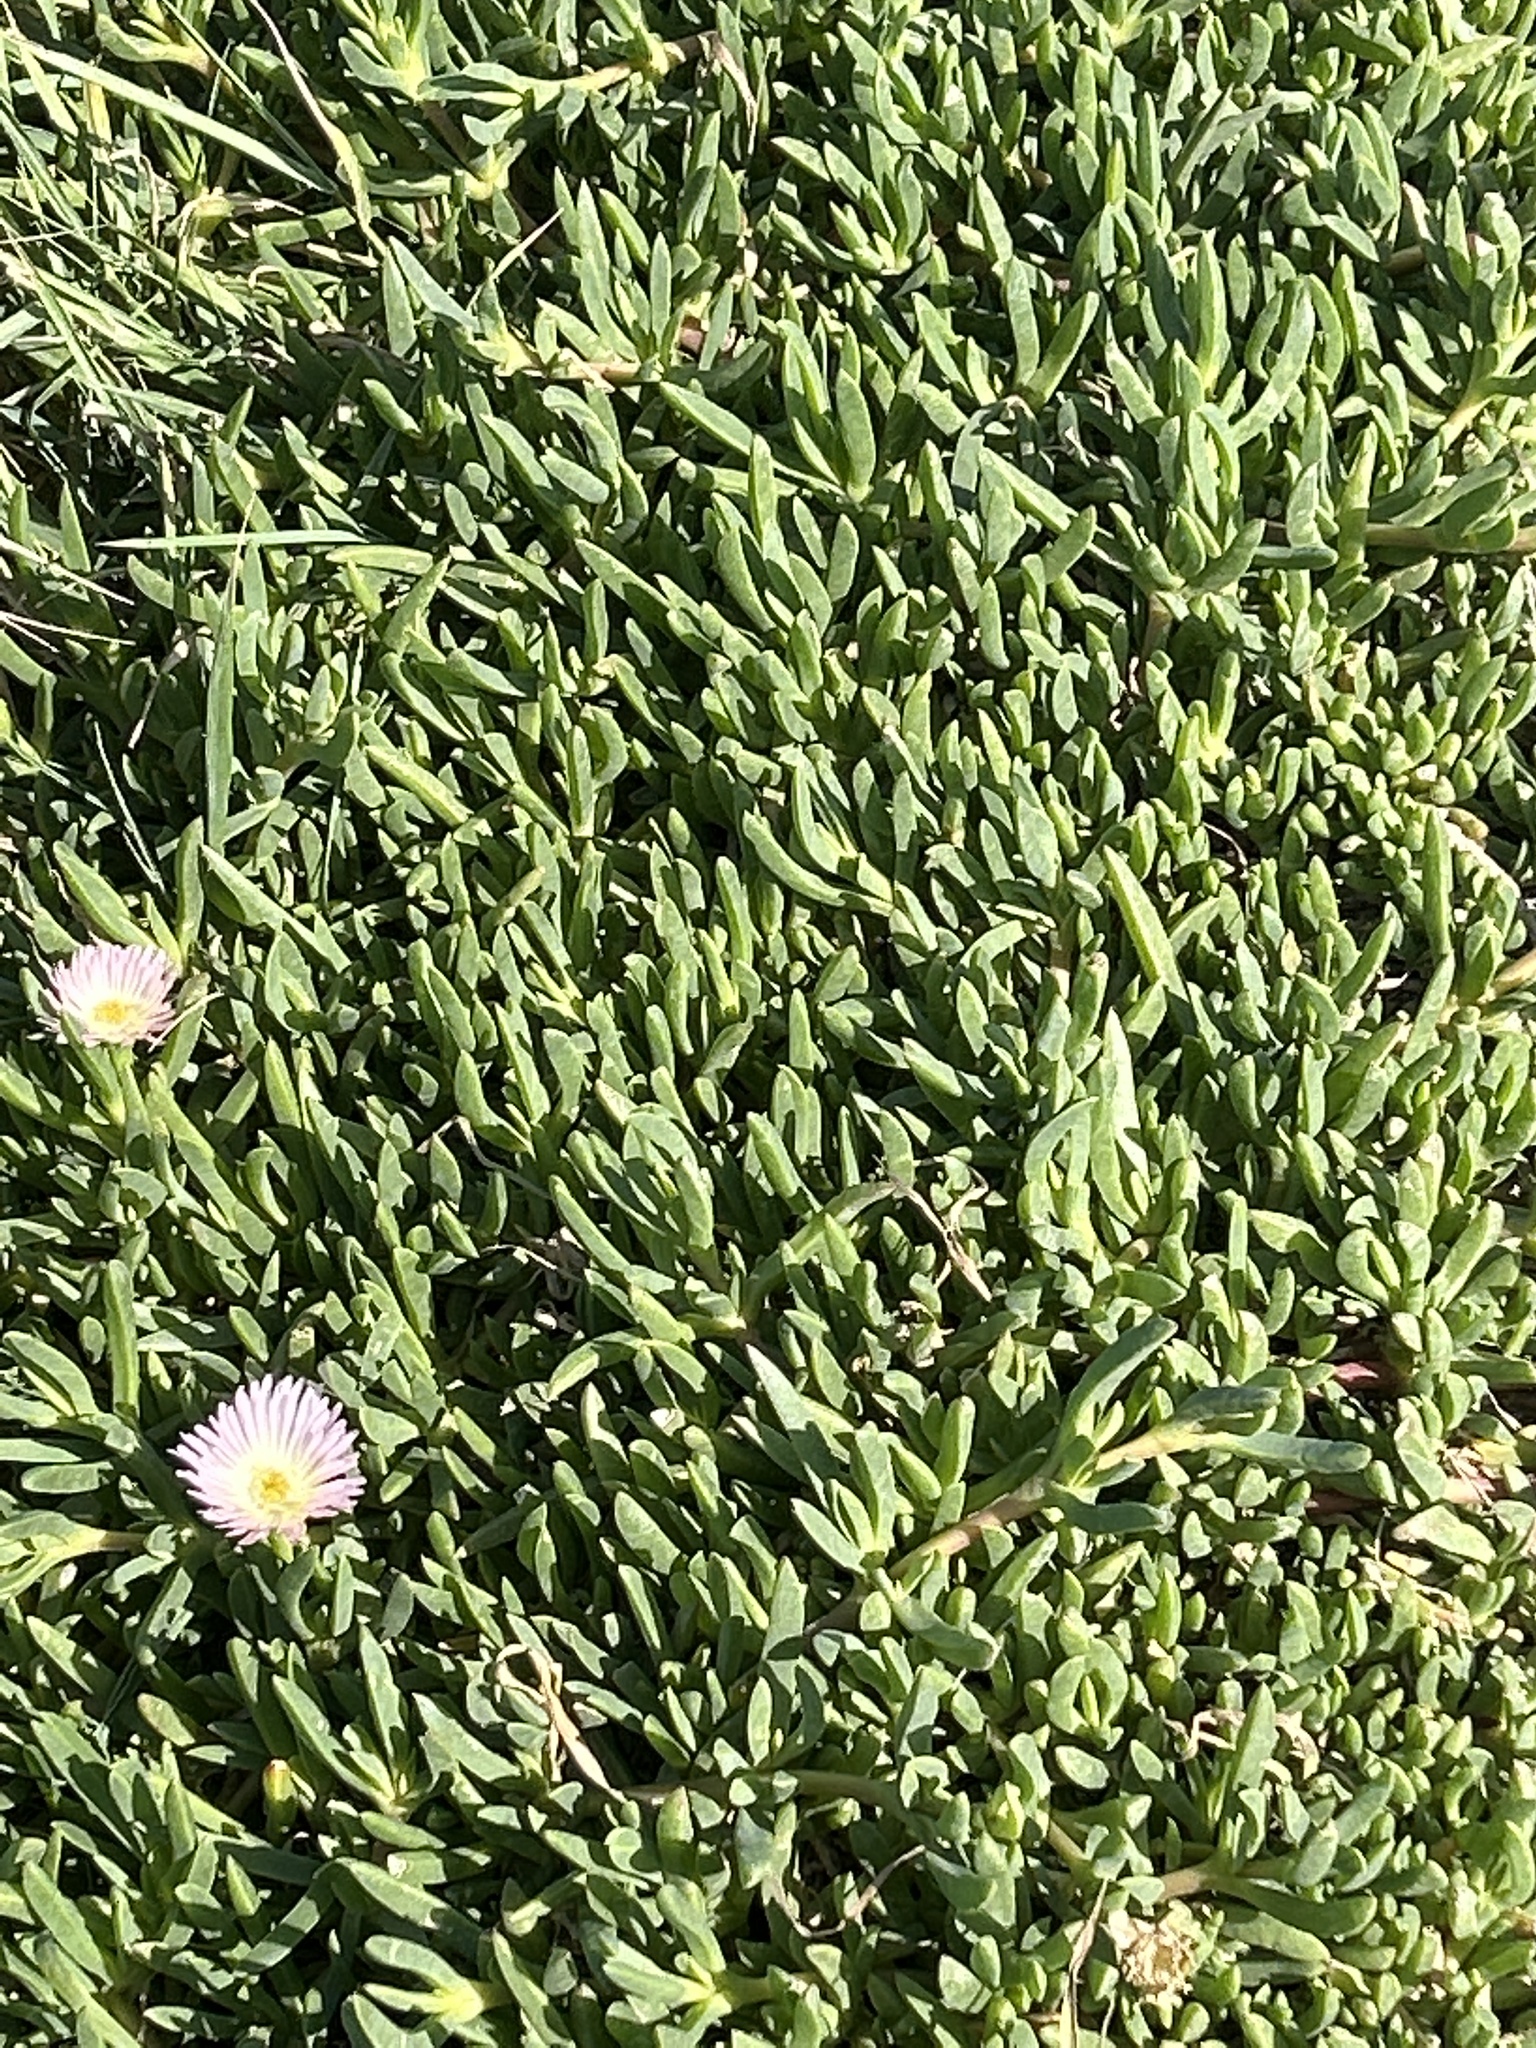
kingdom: Plantae
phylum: Tracheophyta
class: Magnoliopsida
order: Caryophyllales
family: Aizoaceae
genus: Disphyma
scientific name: Disphyma australe
